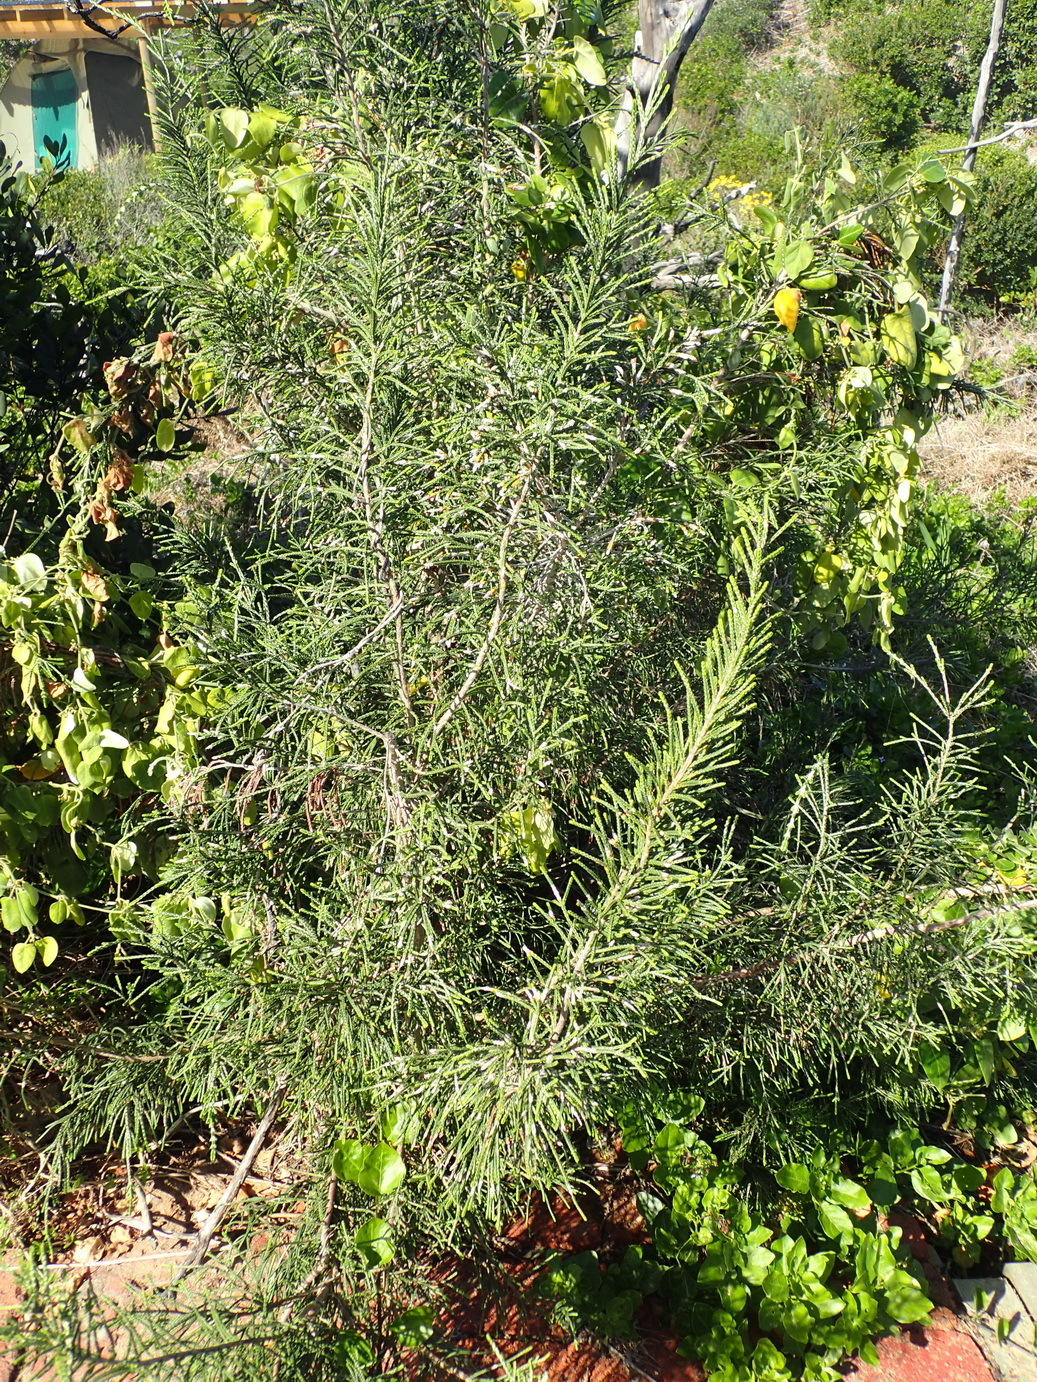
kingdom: Plantae
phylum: Tracheophyta
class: Magnoliopsida
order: Malvales
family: Thymelaeaceae
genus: Passerina
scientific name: Passerina rigida
